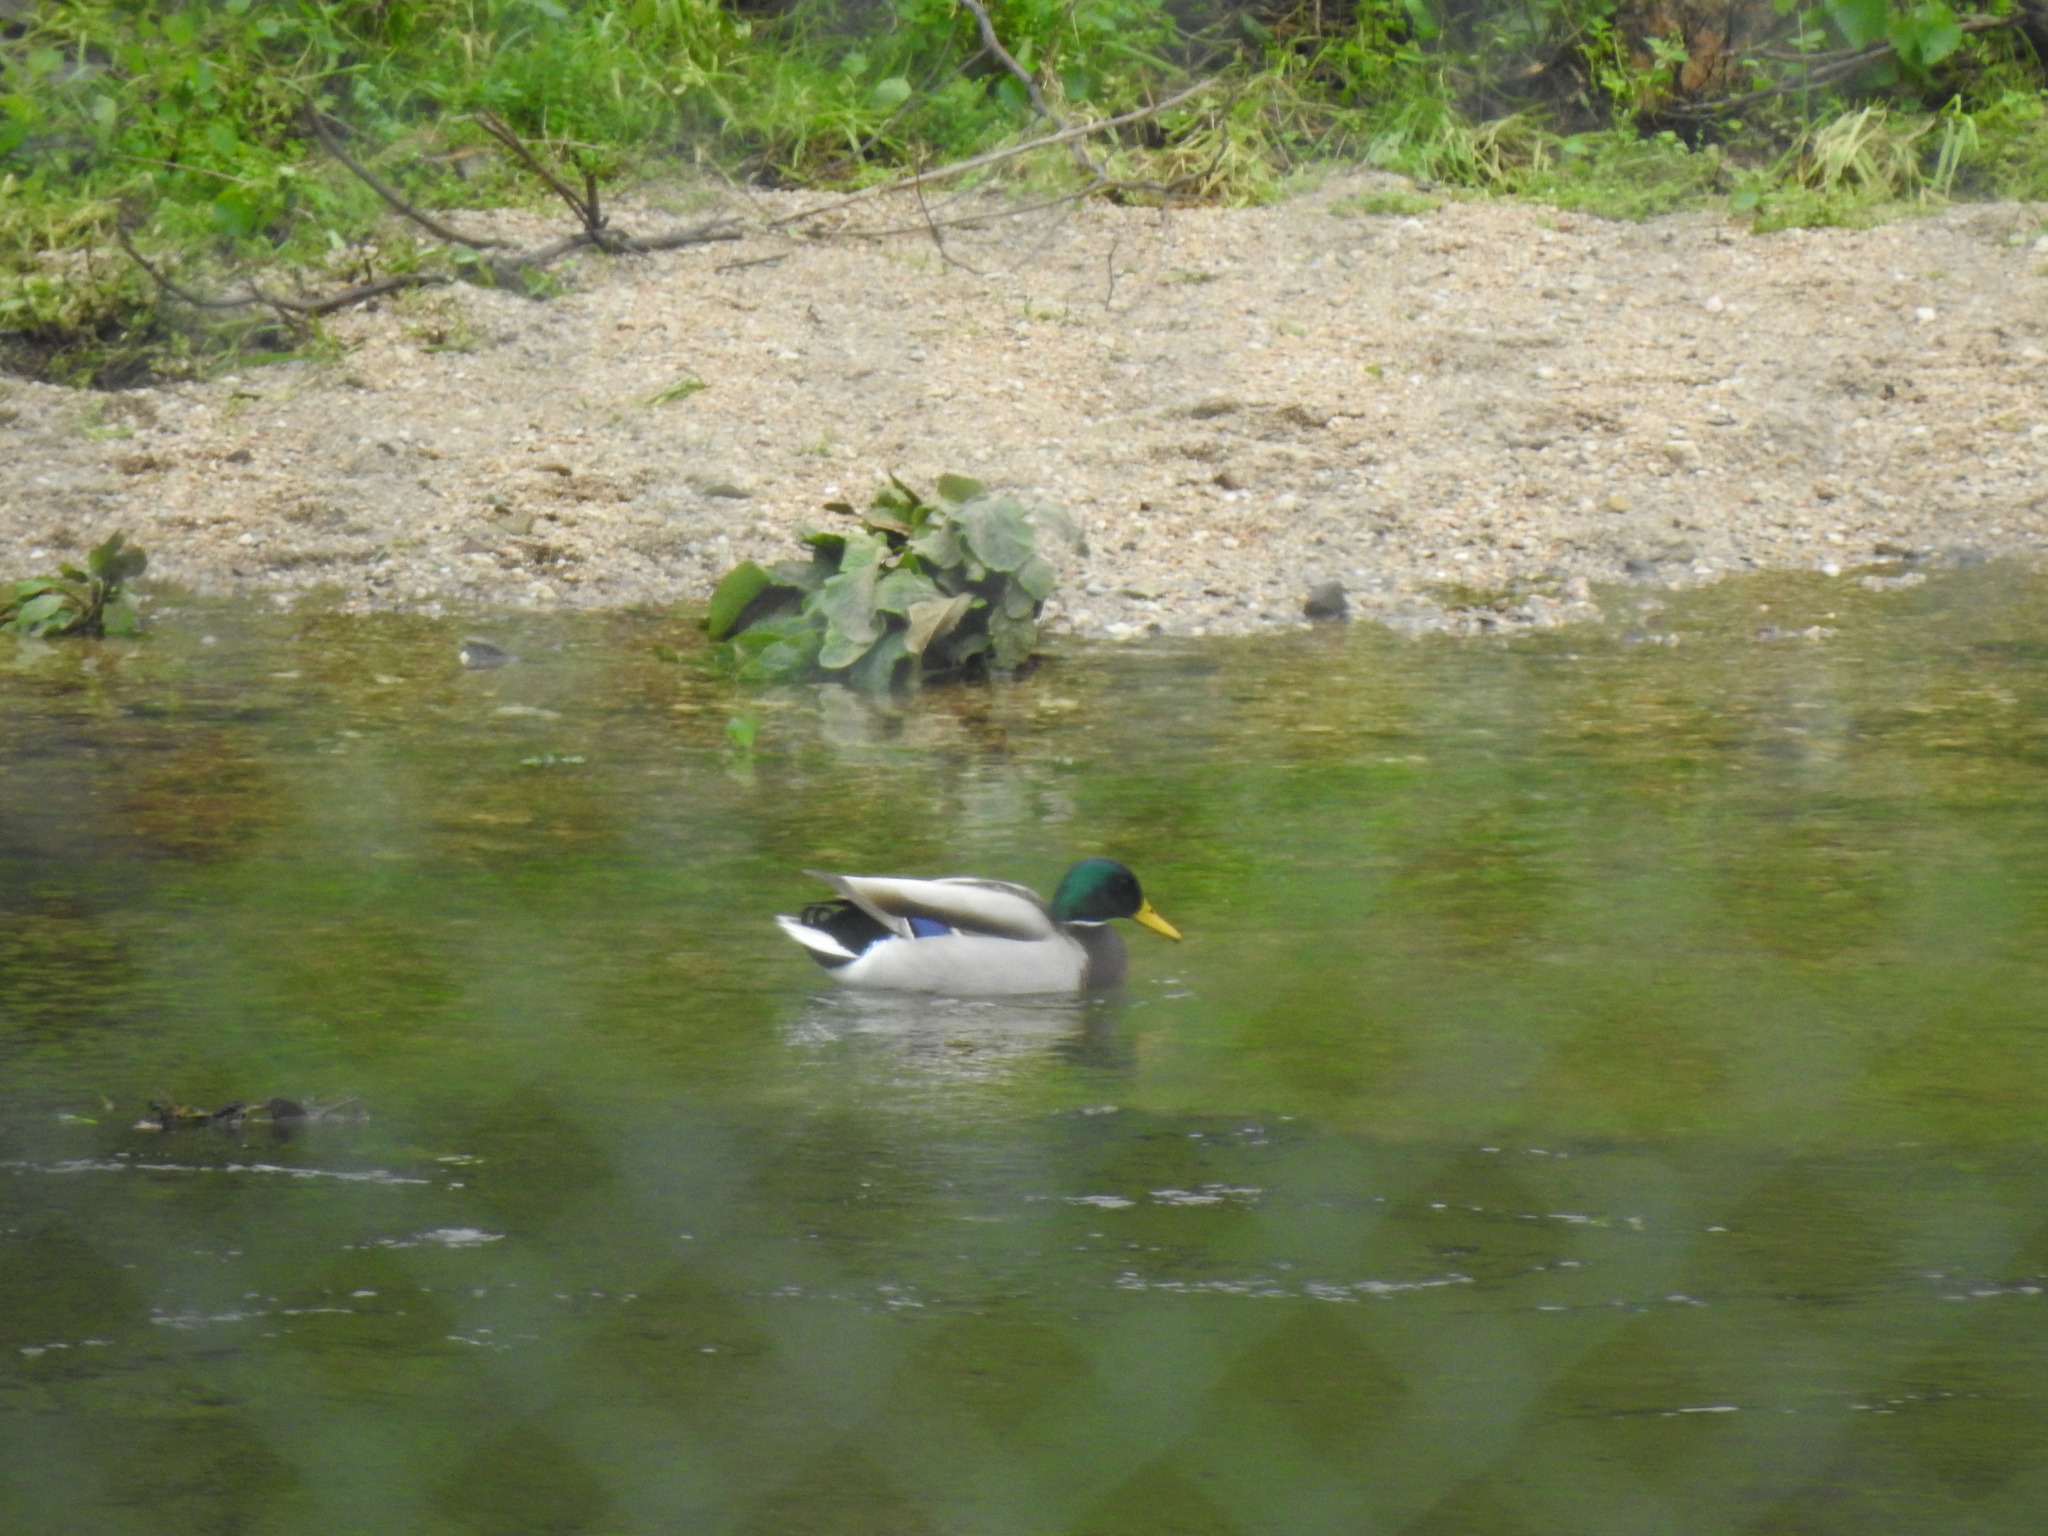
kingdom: Animalia
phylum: Chordata
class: Aves
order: Anseriformes
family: Anatidae
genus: Anas
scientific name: Anas platyrhynchos
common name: Mallard
